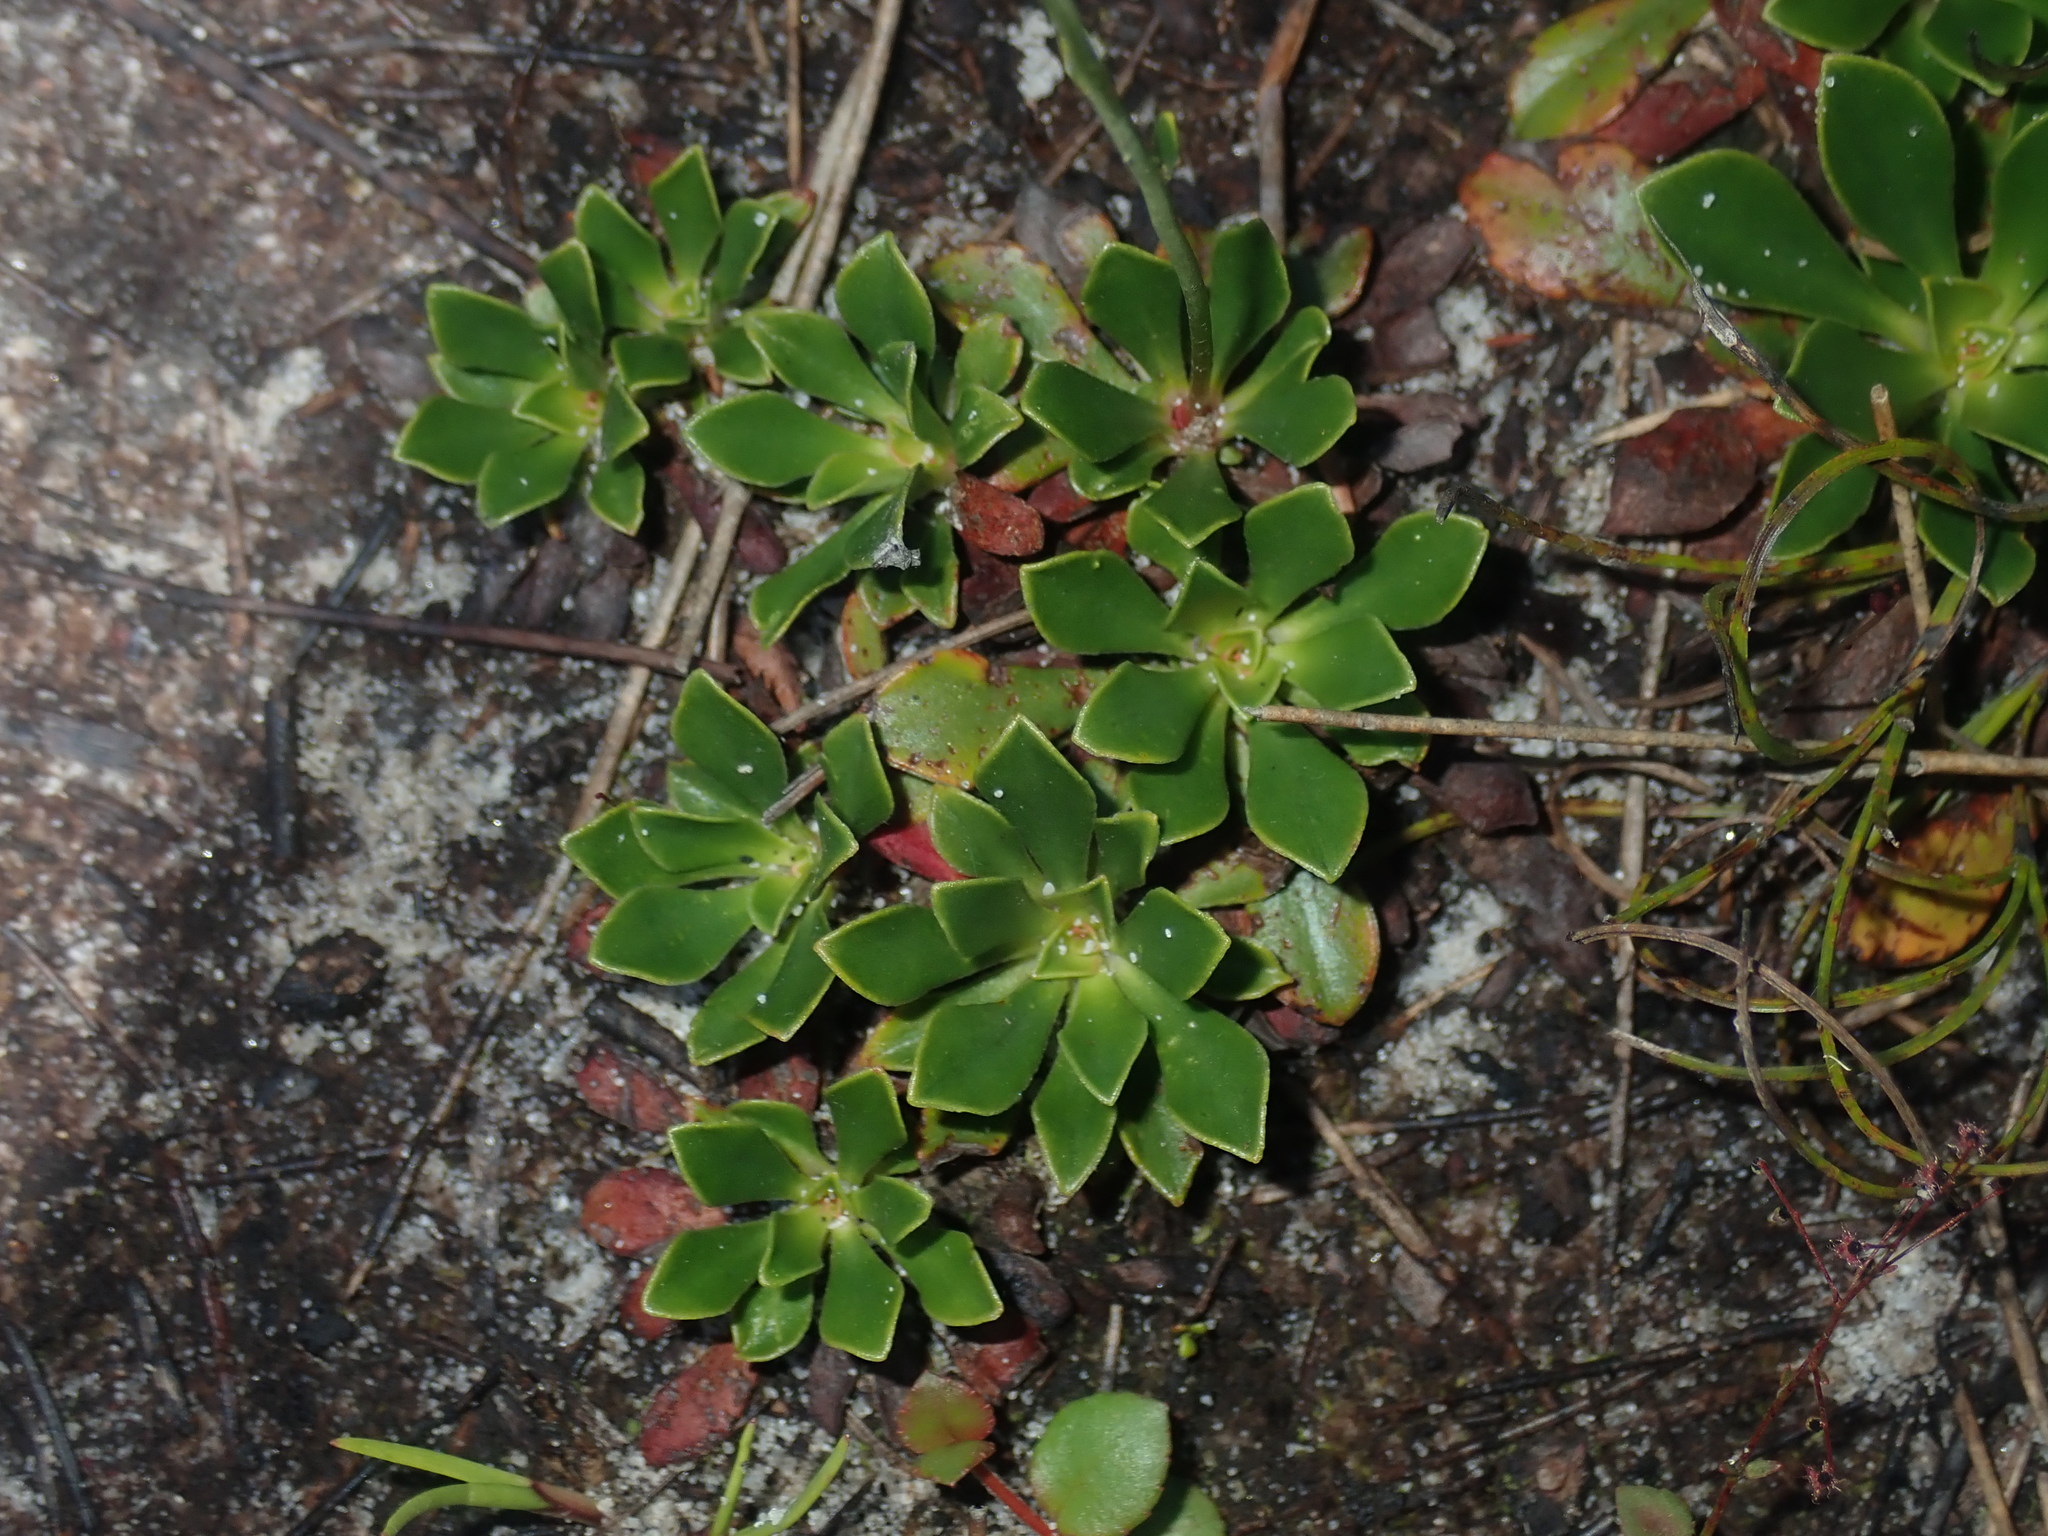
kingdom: Plantae
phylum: Tracheophyta
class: Magnoliopsida
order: Asterales
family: Stylidiaceae
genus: Stylidium
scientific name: Stylidium ornatum
